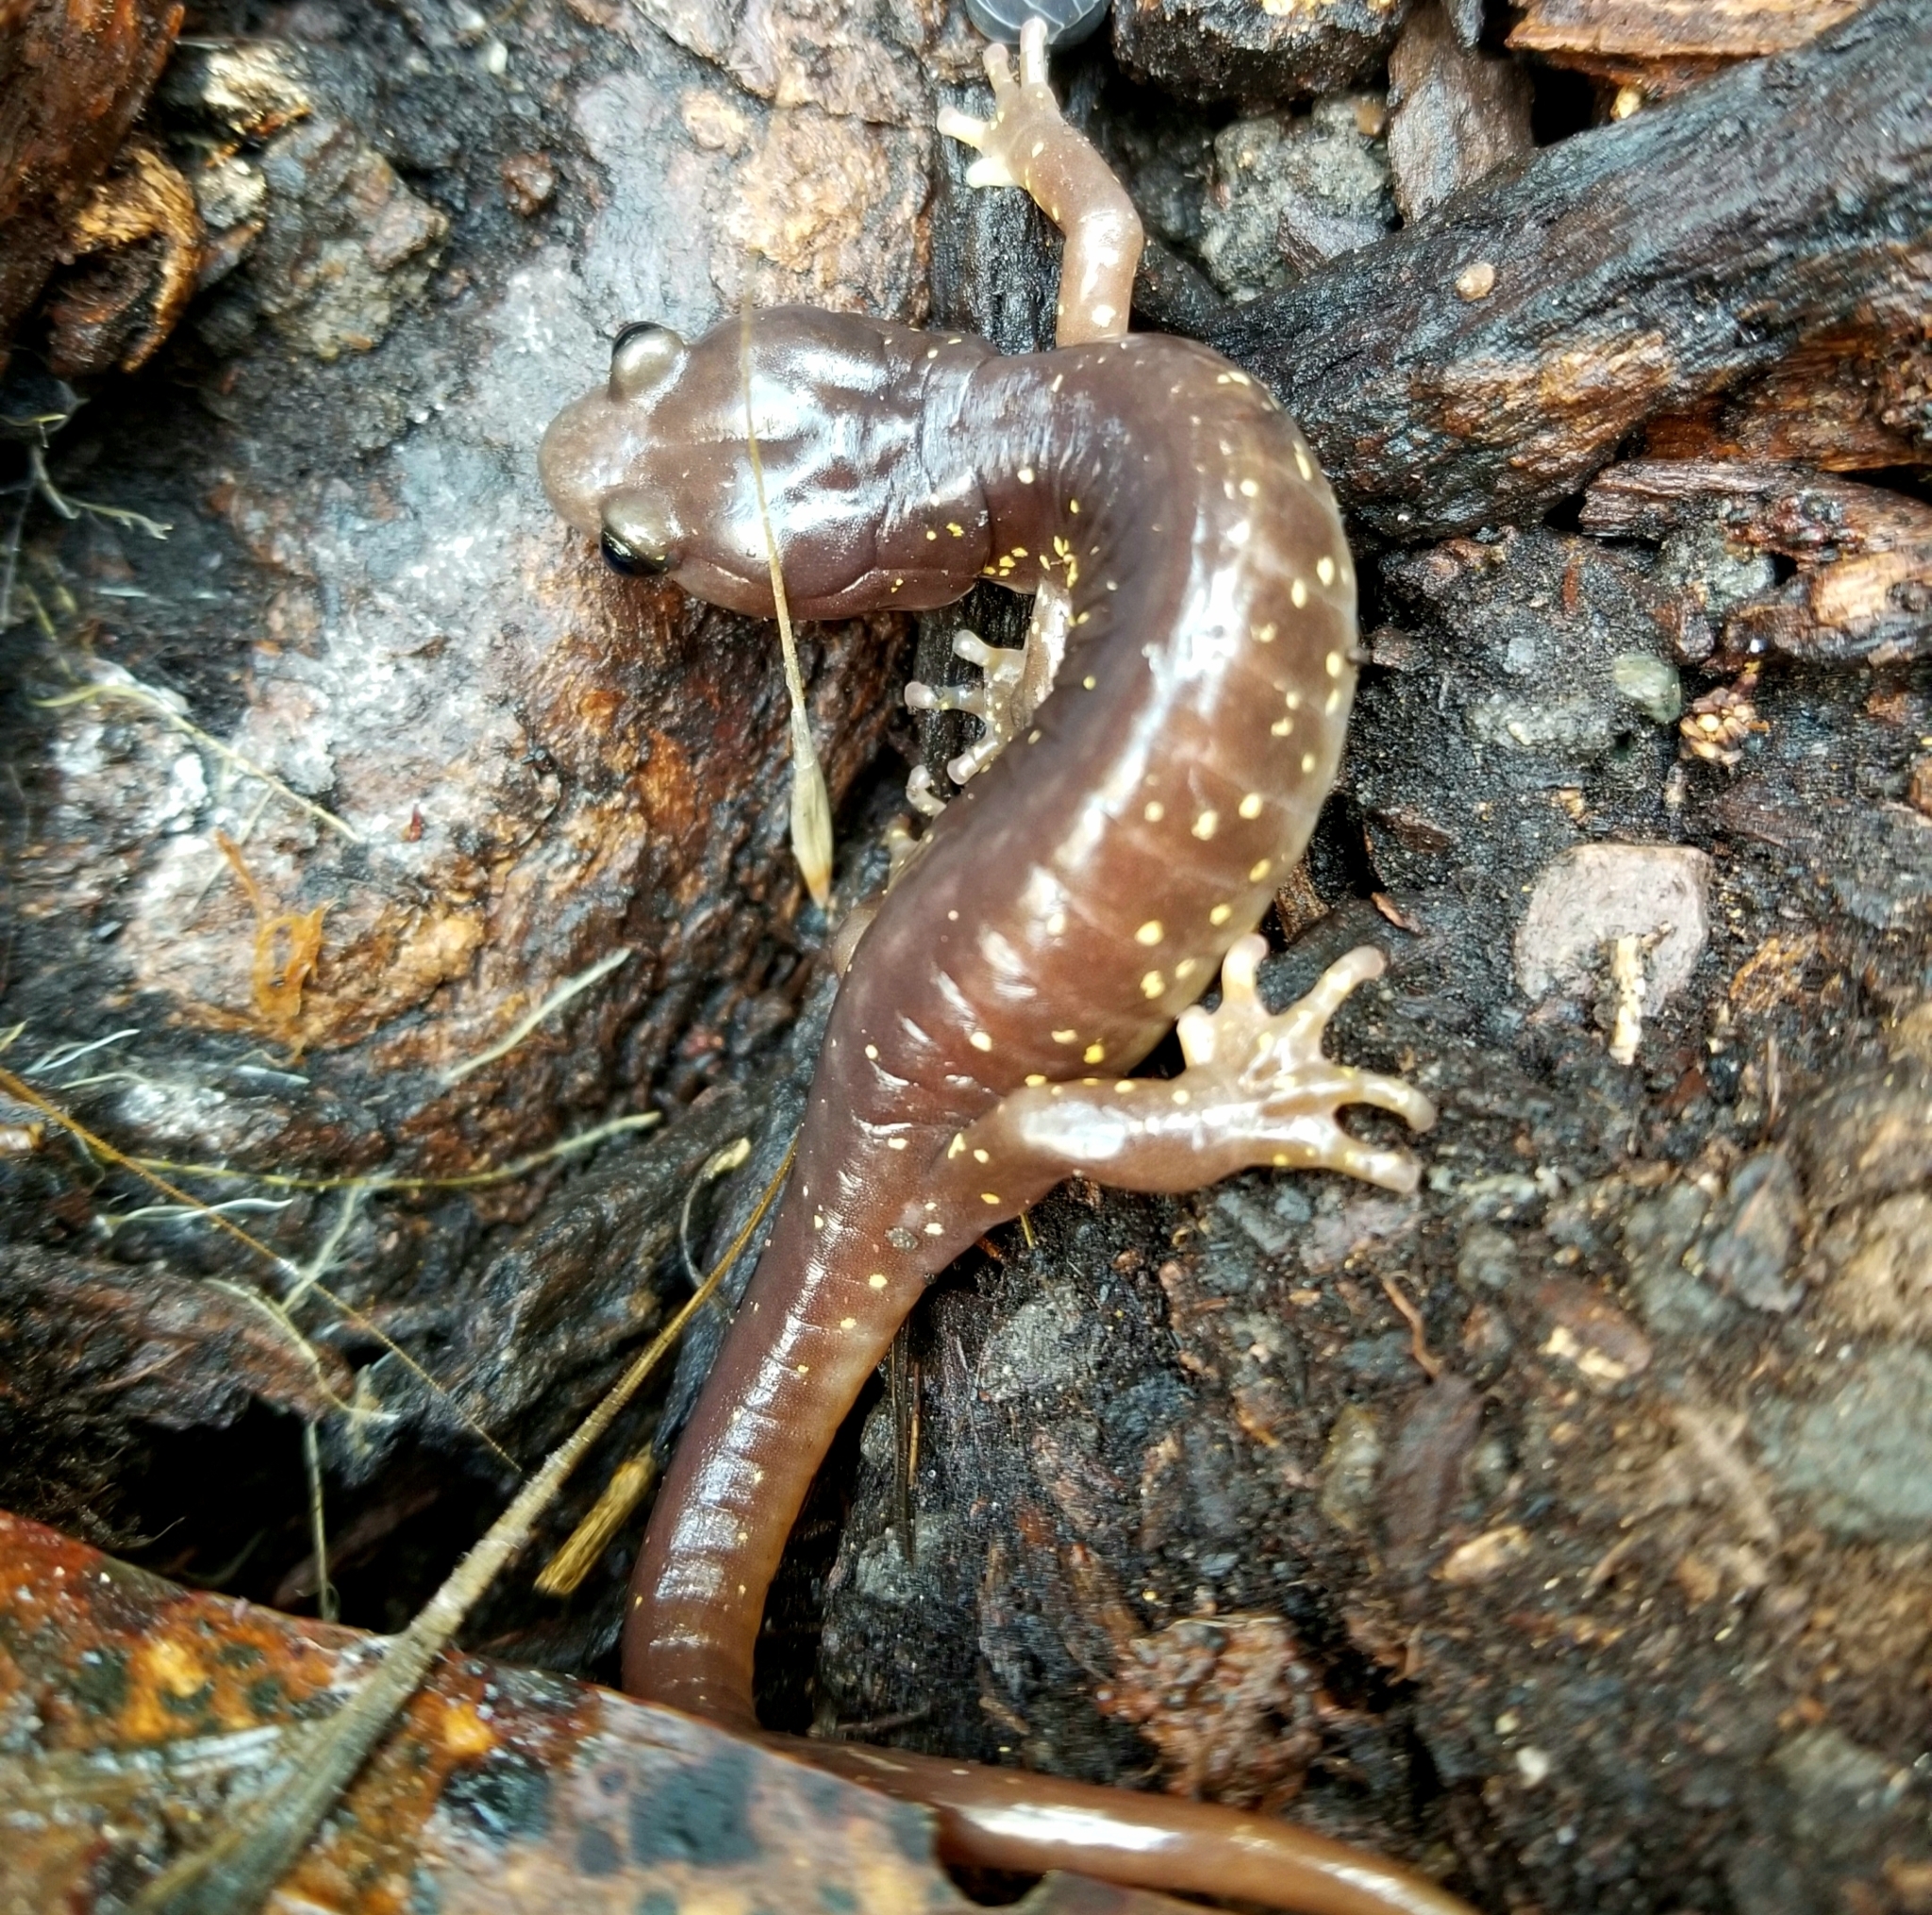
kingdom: Animalia
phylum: Chordata
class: Amphibia
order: Caudata
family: Plethodontidae
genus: Aneides
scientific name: Aneides lugubris
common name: Arboreal salamander
